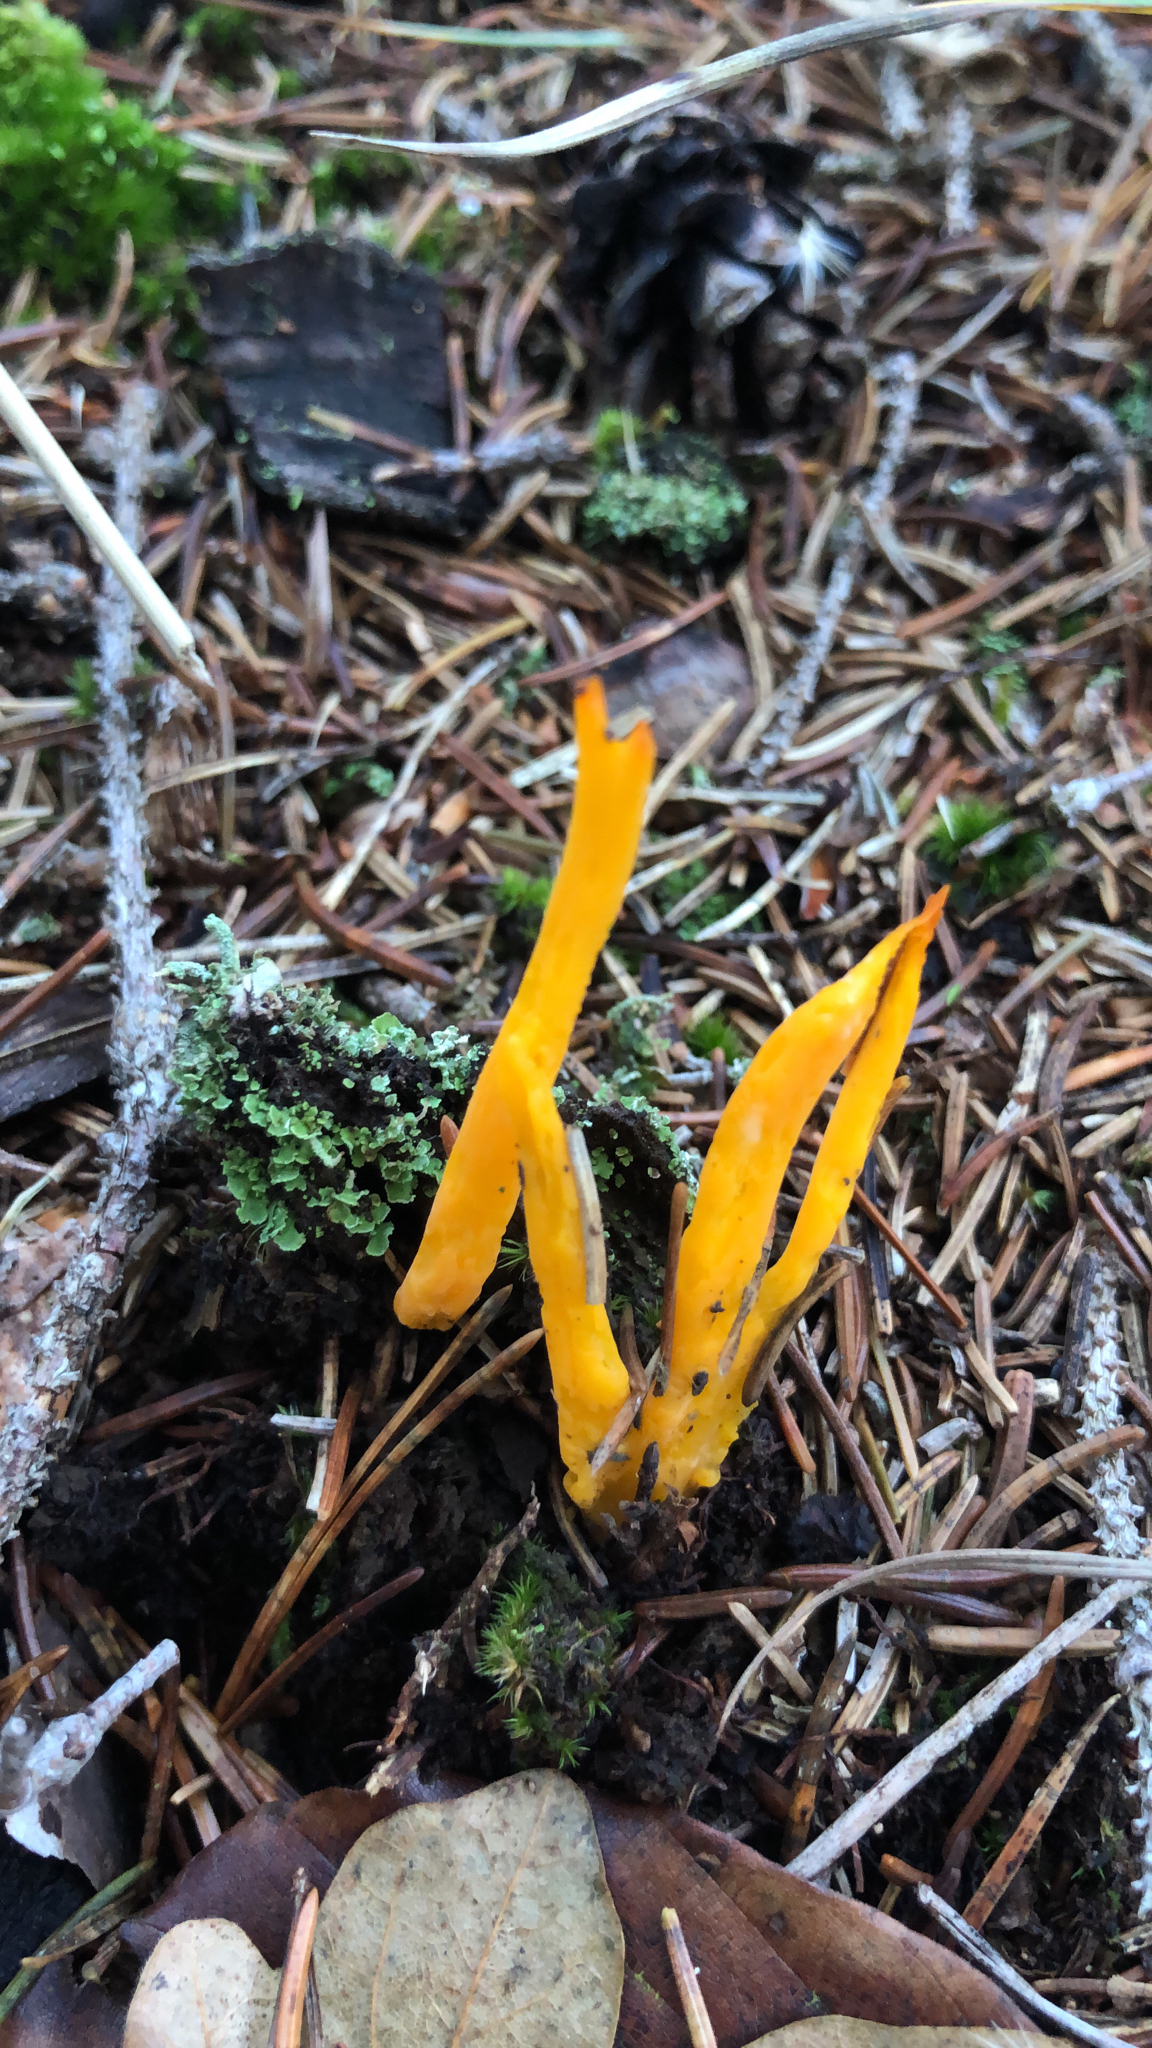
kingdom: Fungi
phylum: Basidiomycota
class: Dacrymycetes
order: Dacrymycetales
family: Dacrymycetaceae
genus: Calocera
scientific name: Calocera viscosa
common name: Yellow stagshorn
